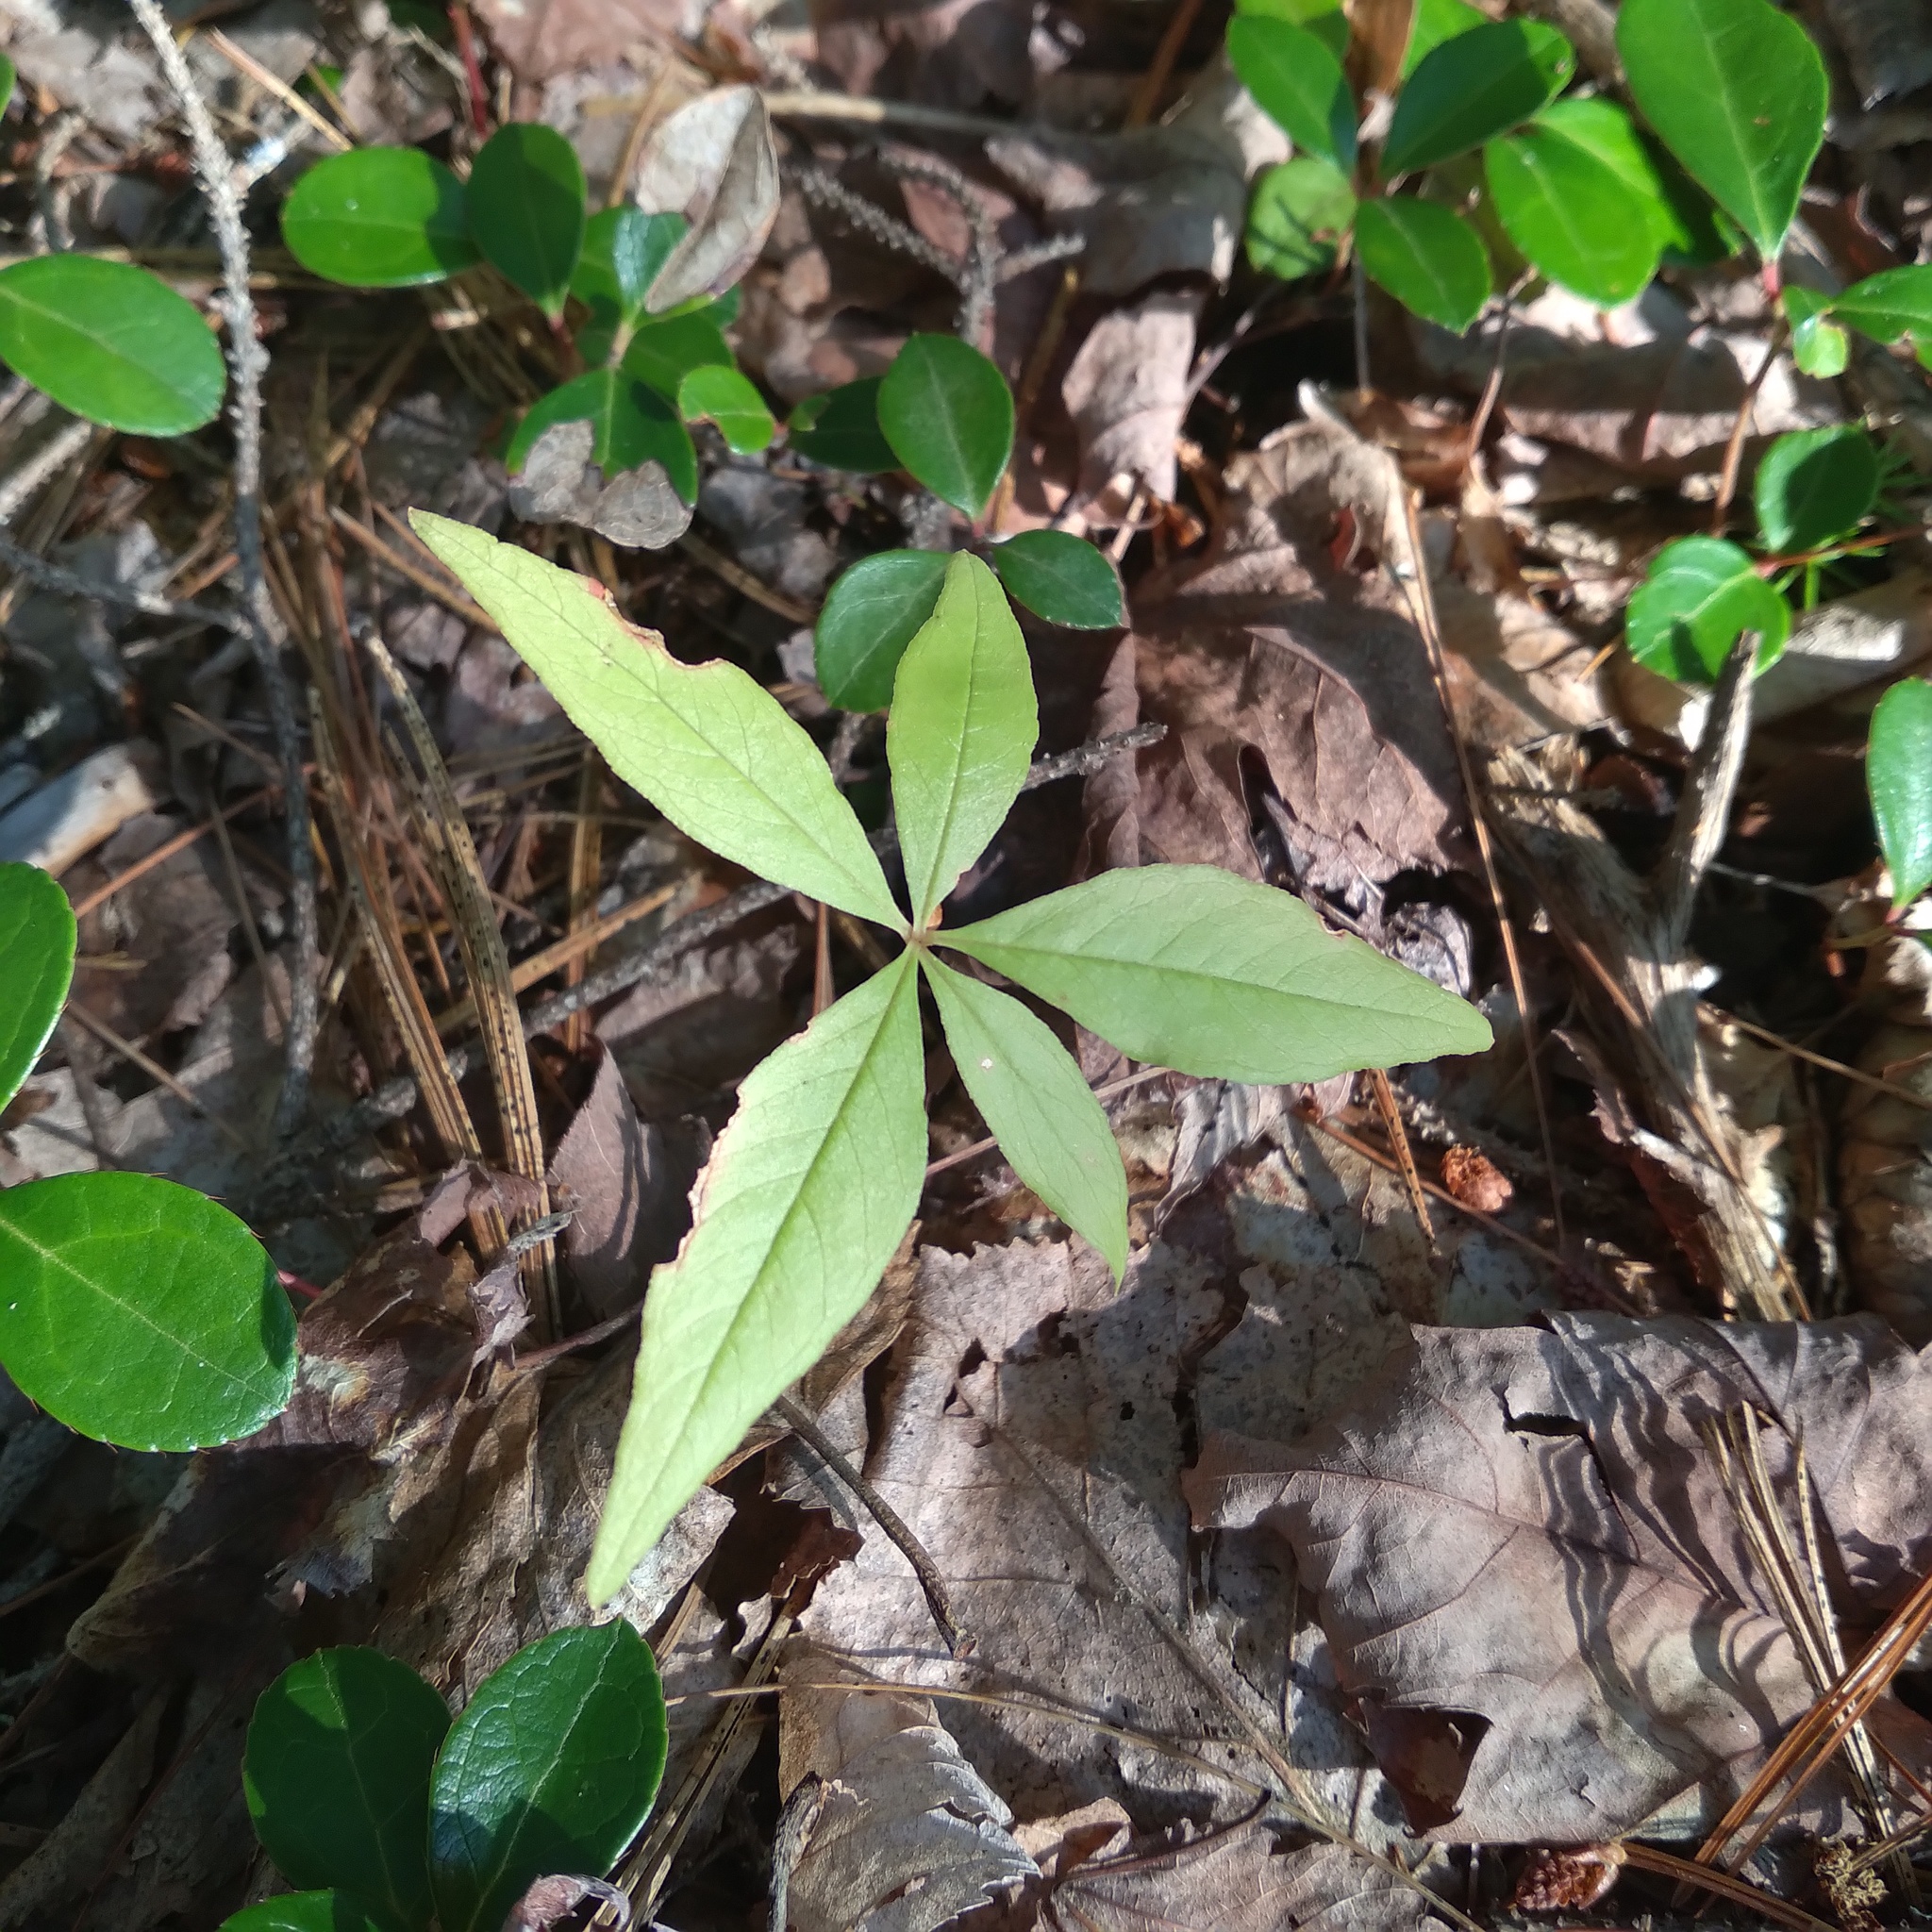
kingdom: Plantae
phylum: Tracheophyta
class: Magnoliopsida
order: Ericales
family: Primulaceae
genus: Lysimachia
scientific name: Lysimachia borealis
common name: American starflower
